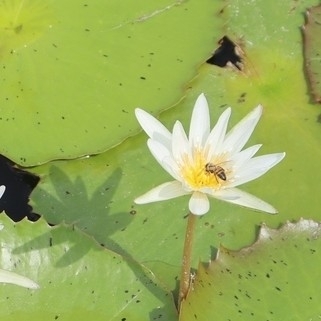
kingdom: Animalia
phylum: Arthropoda
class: Insecta
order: Hymenoptera
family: Apidae
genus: Apis
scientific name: Apis mellifera
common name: Honey bee
